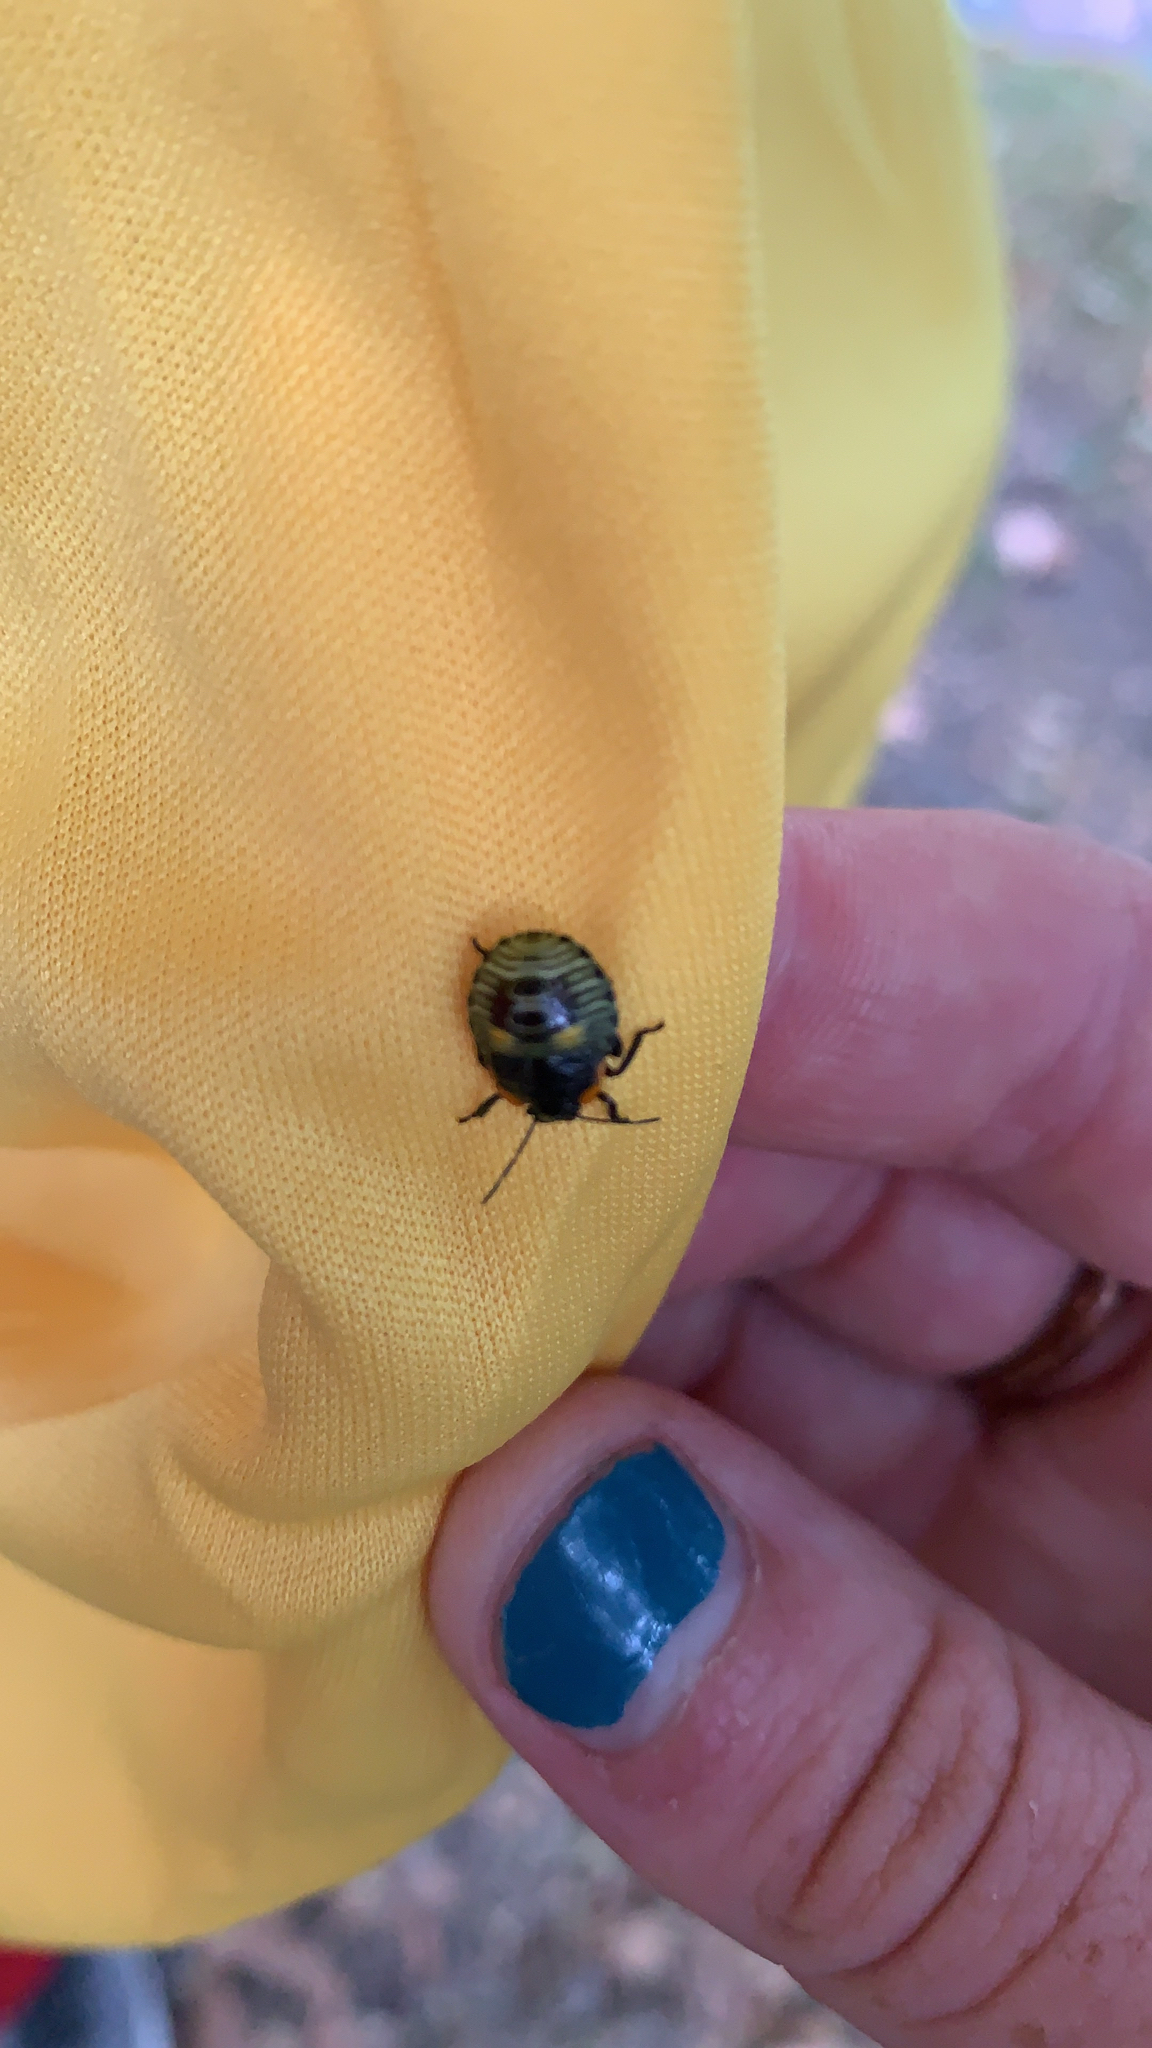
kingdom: Animalia
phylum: Arthropoda
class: Insecta
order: Hemiptera
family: Pentatomidae
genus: Chinavia
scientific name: Chinavia hilaris
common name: Green stink bug
